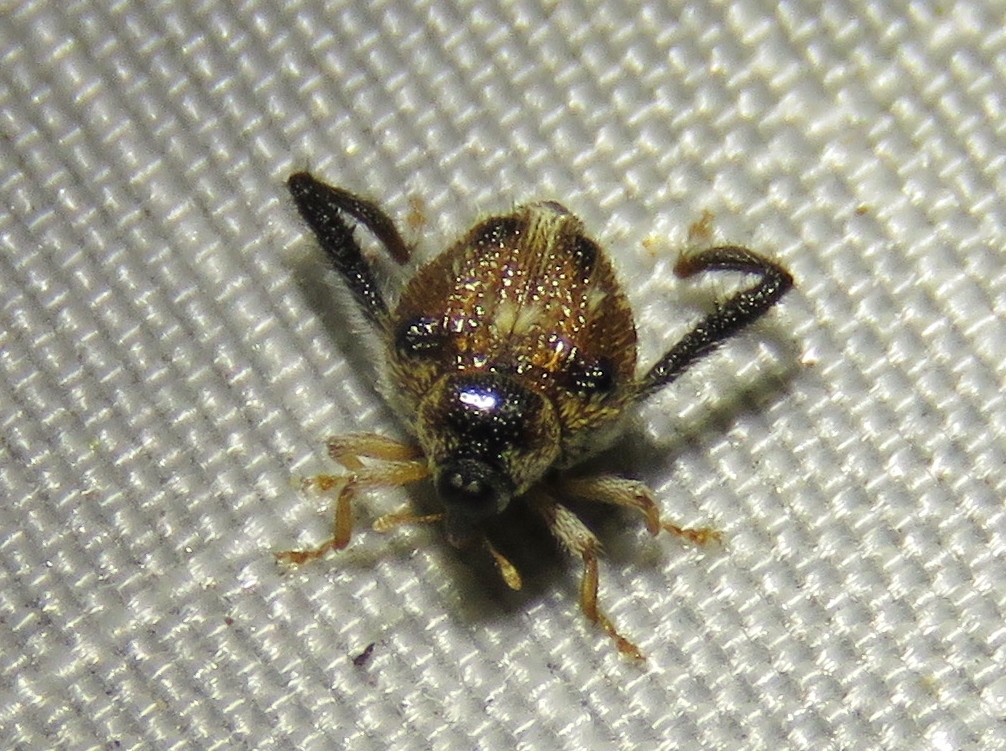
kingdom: Animalia
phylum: Arthropoda
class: Insecta
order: Coleoptera
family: Curculionidae
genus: Tachygonus
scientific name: Tachygonus tardipes
